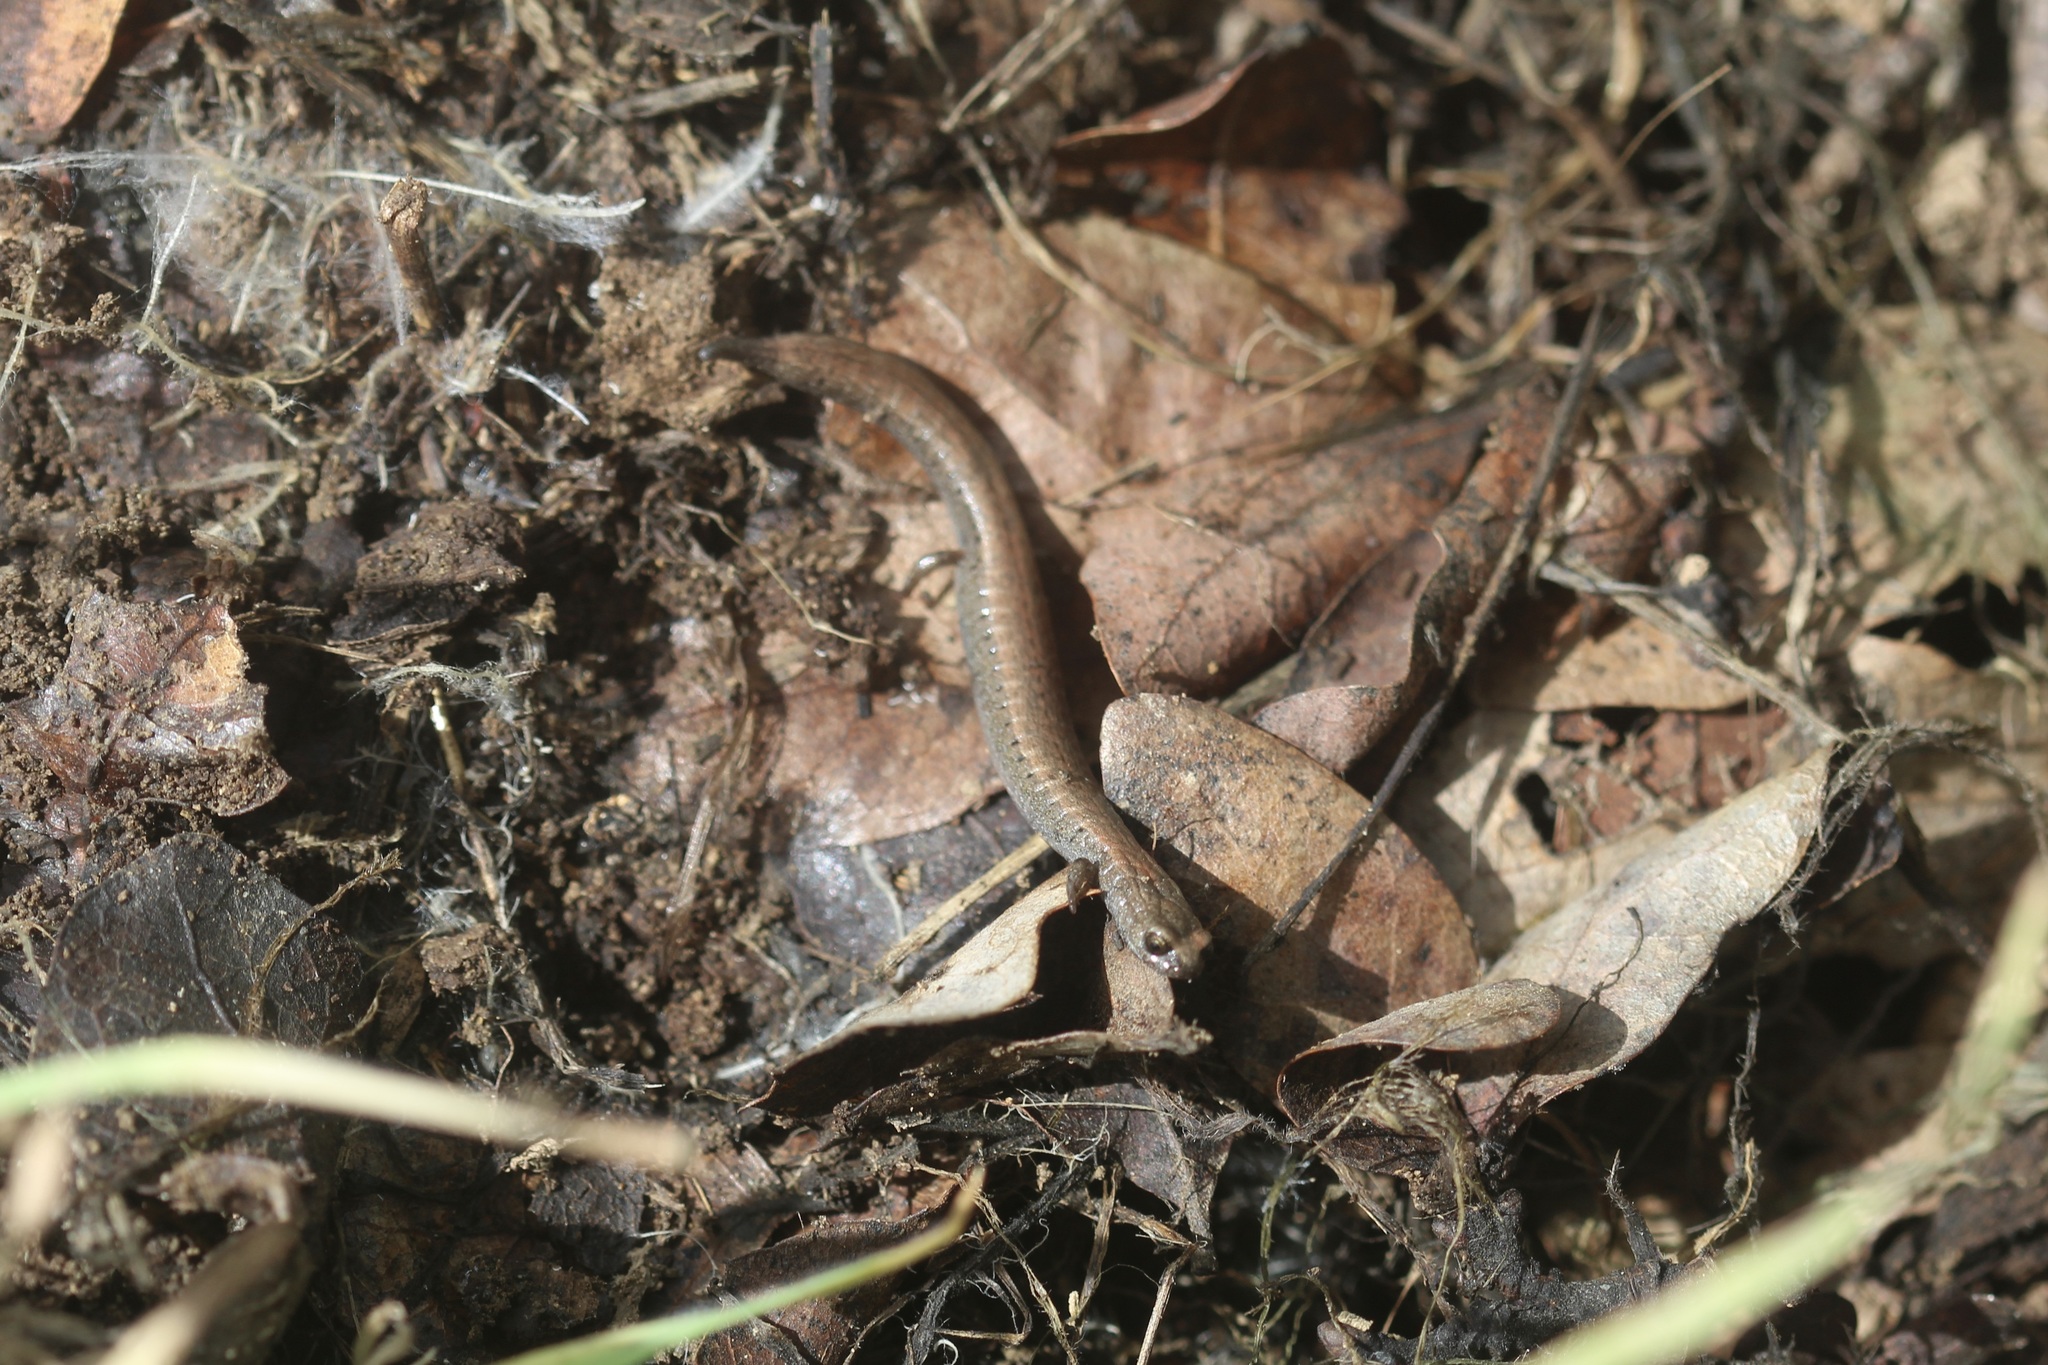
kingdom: Animalia
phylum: Chordata
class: Amphibia
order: Caudata
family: Plethodontidae
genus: Batrachoseps
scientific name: Batrachoseps attenuatus
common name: California slender salamander
